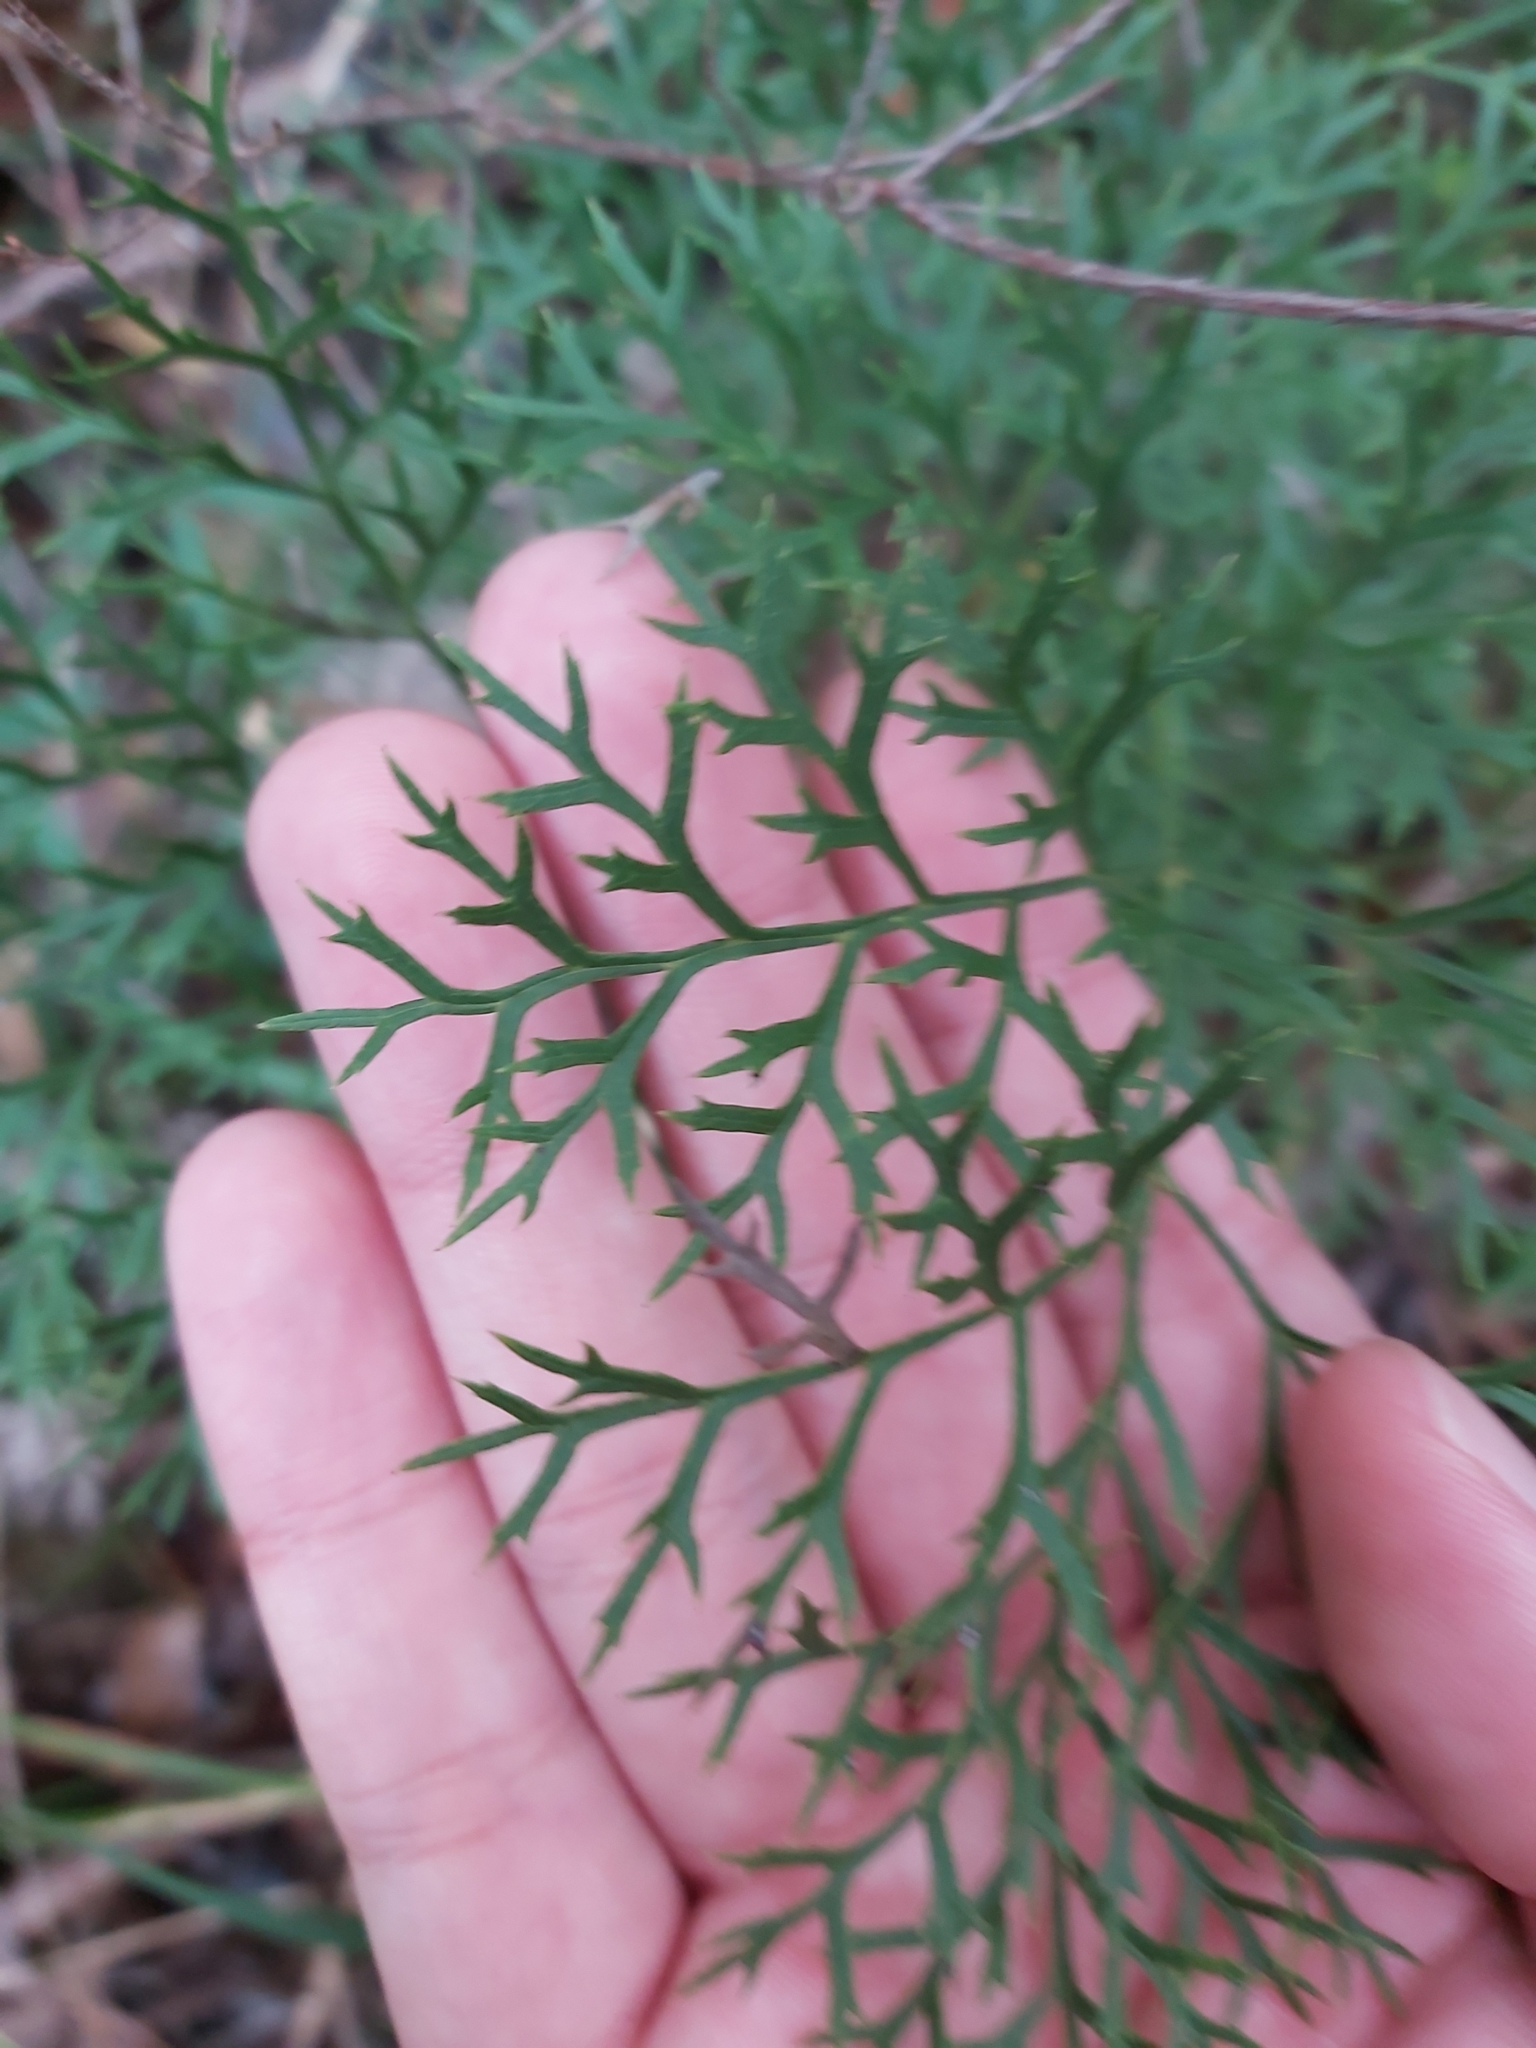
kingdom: Plantae
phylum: Tracheophyta
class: Magnoliopsida
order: Proteales
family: Proteaceae
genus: Lomatia
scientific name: Lomatia silaifolia
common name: Crinklebush
